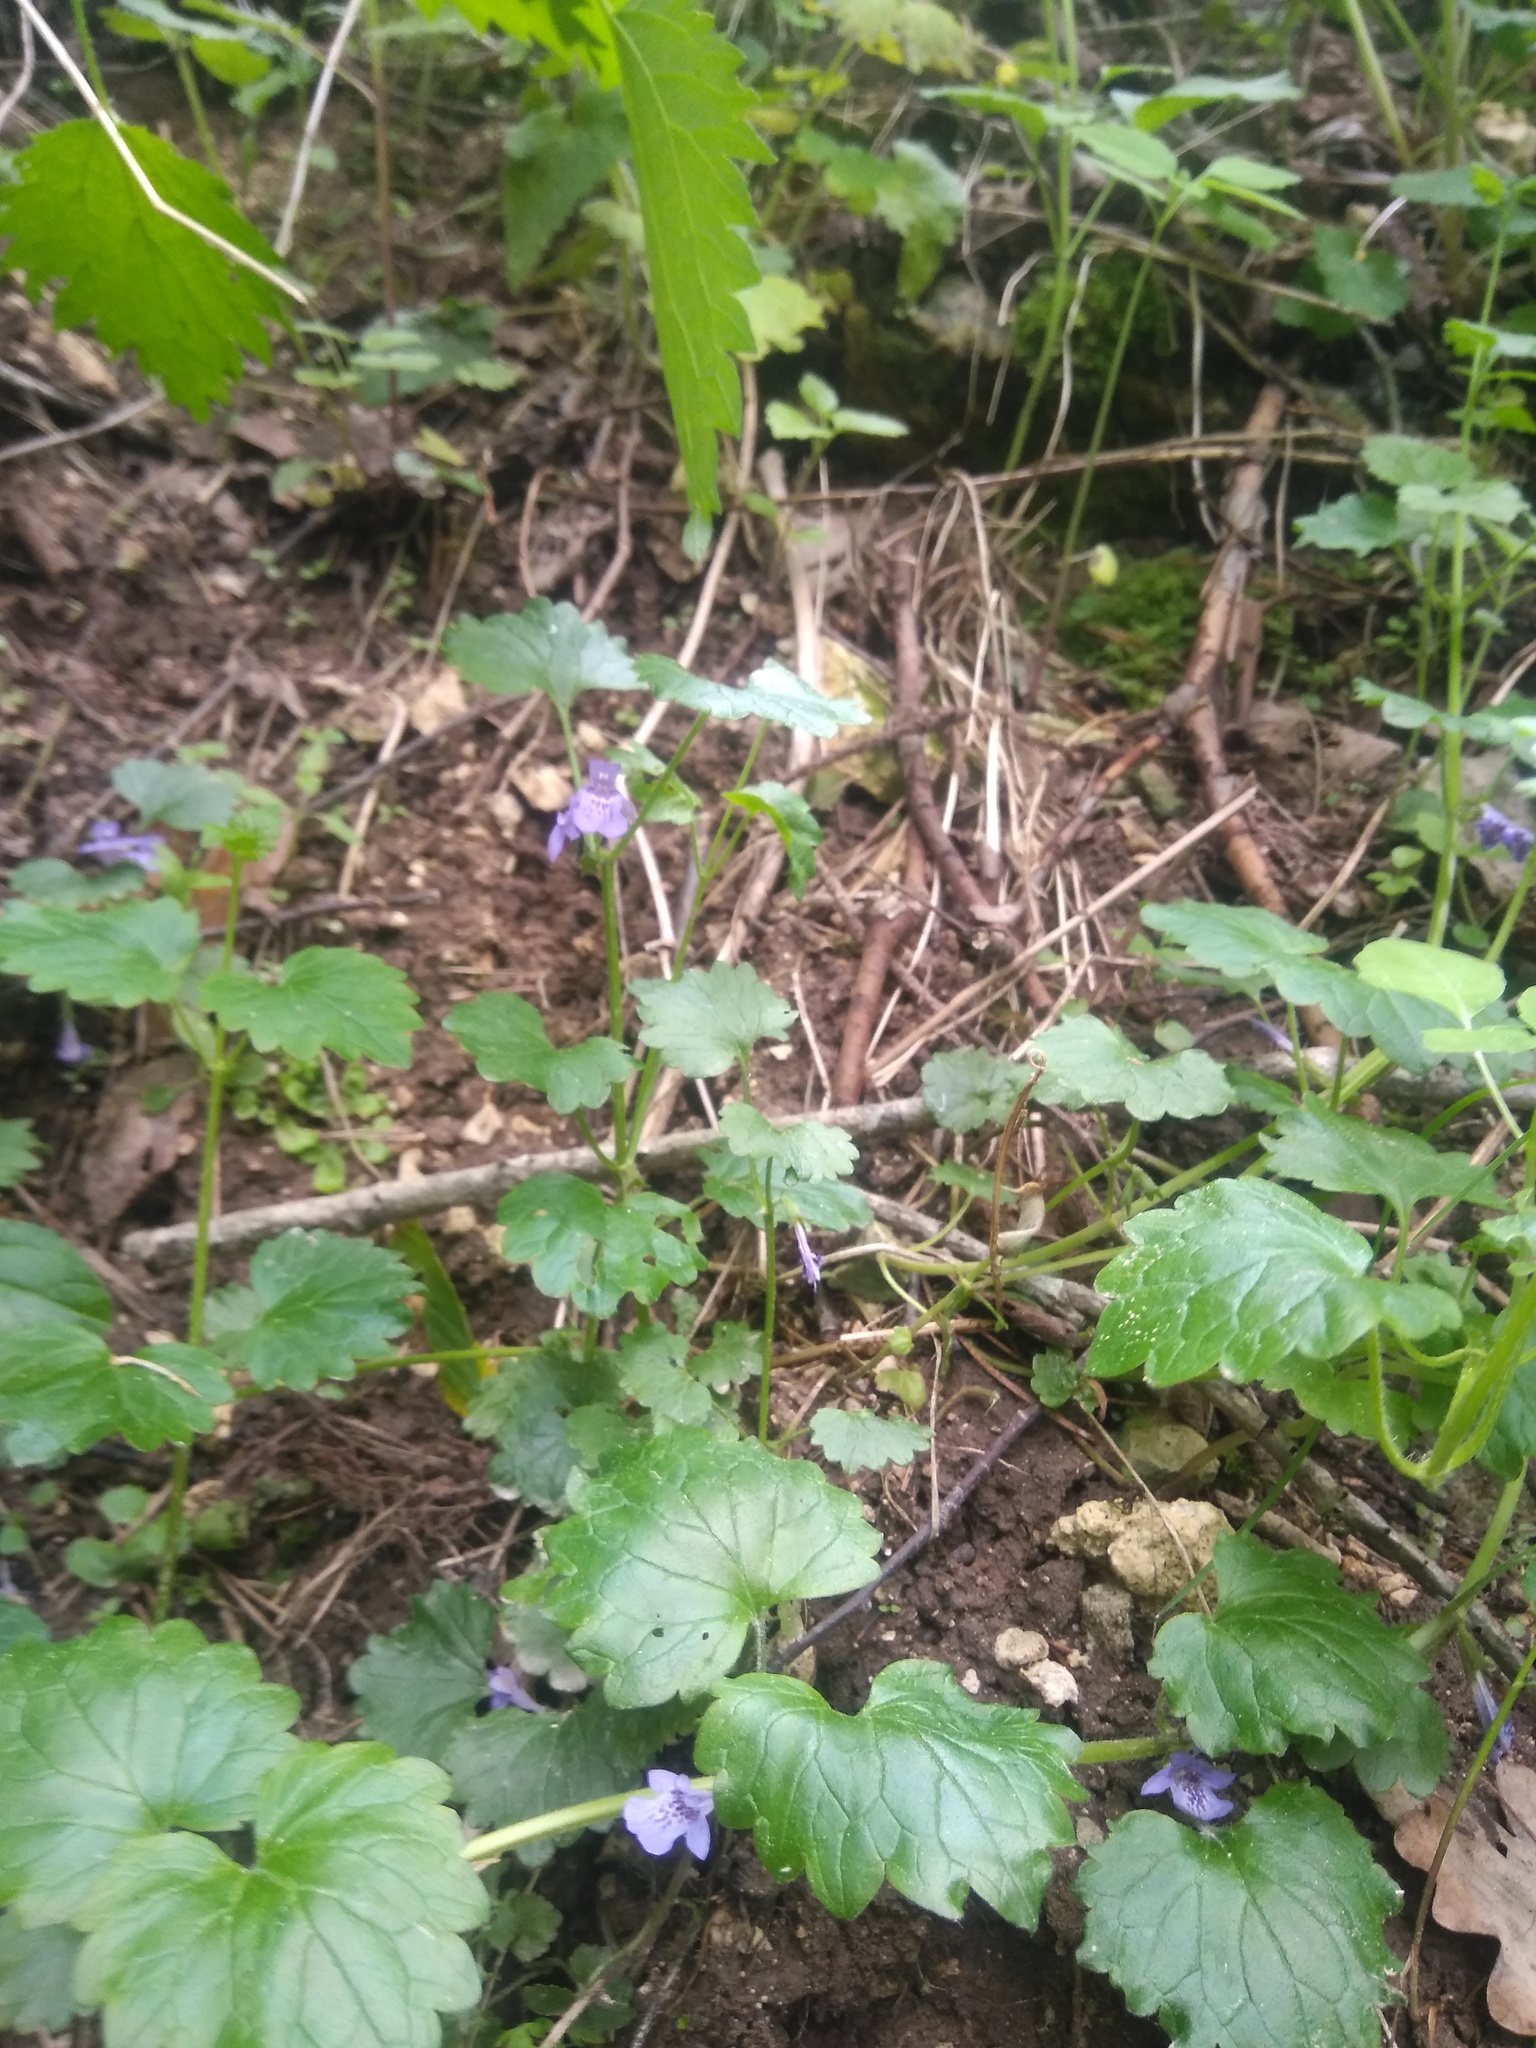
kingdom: Plantae
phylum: Tracheophyta
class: Magnoliopsida
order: Lamiales
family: Lamiaceae
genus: Glechoma
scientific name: Glechoma hederacea
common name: Ground ivy
